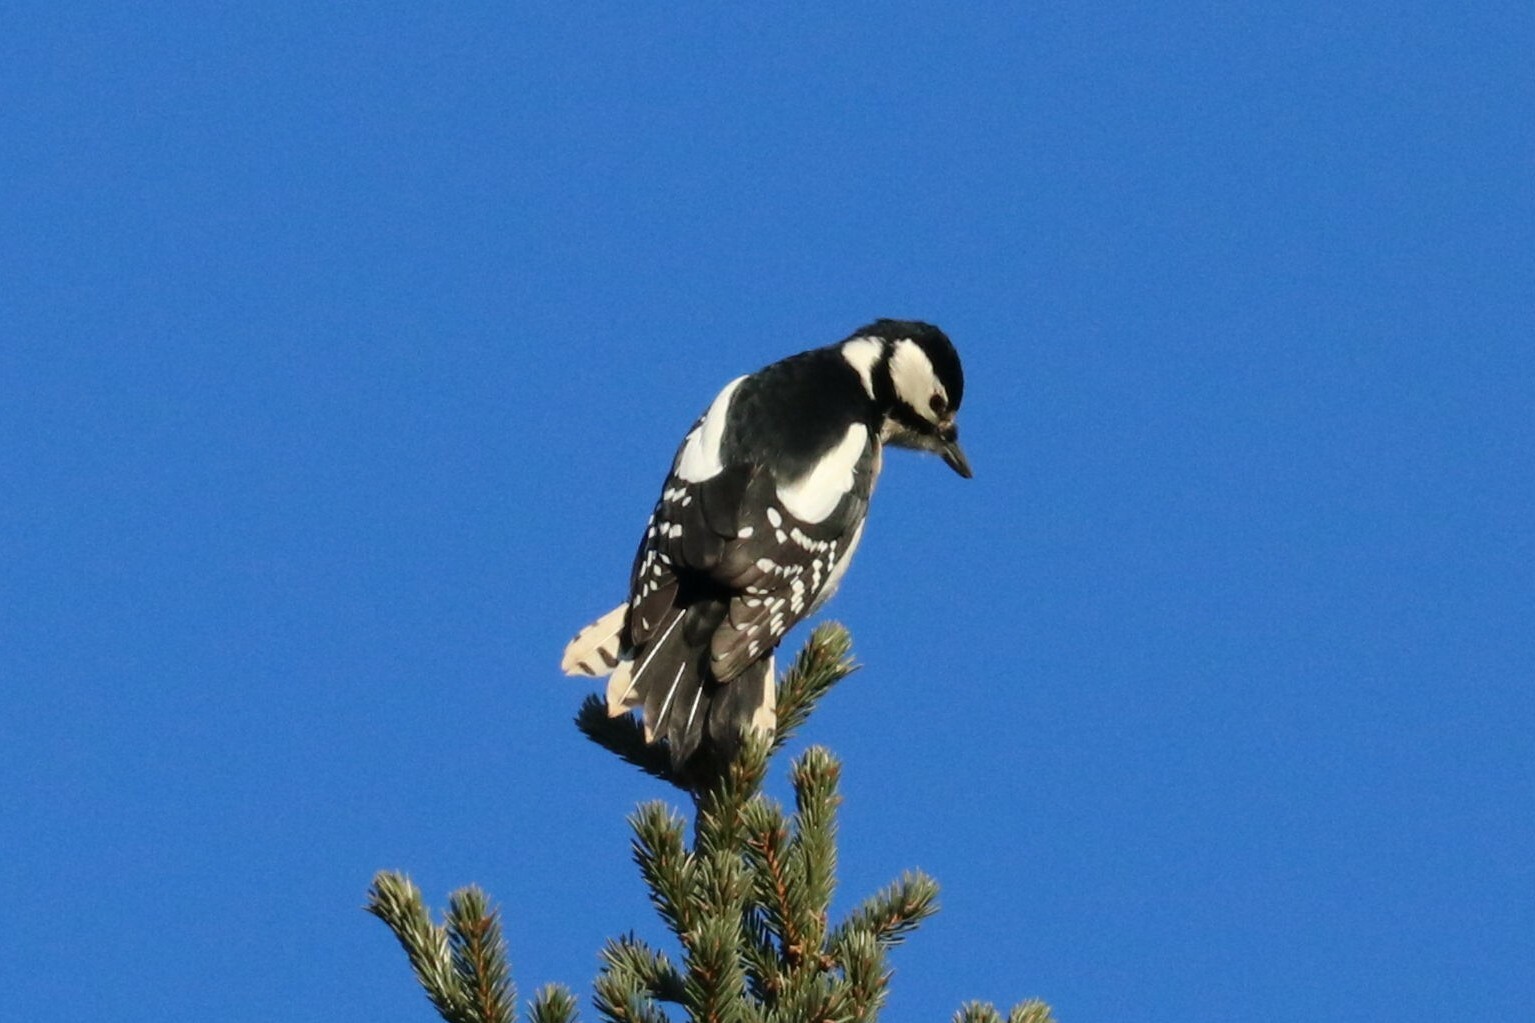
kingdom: Animalia
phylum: Chordata
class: Aves
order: Piciformes
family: Picidae
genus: Dendrocopos
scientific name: Dendrocopos major
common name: Great spotted woodpecker
